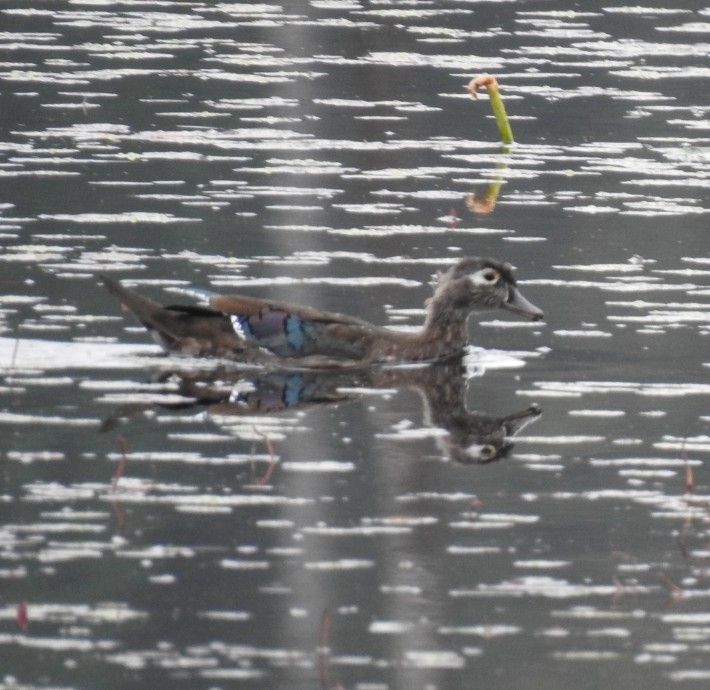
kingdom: Animalia
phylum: Chordata
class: Aves
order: Anseriformes
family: Anatidae
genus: Aix
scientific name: Aix sponsa
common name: Wood duck
